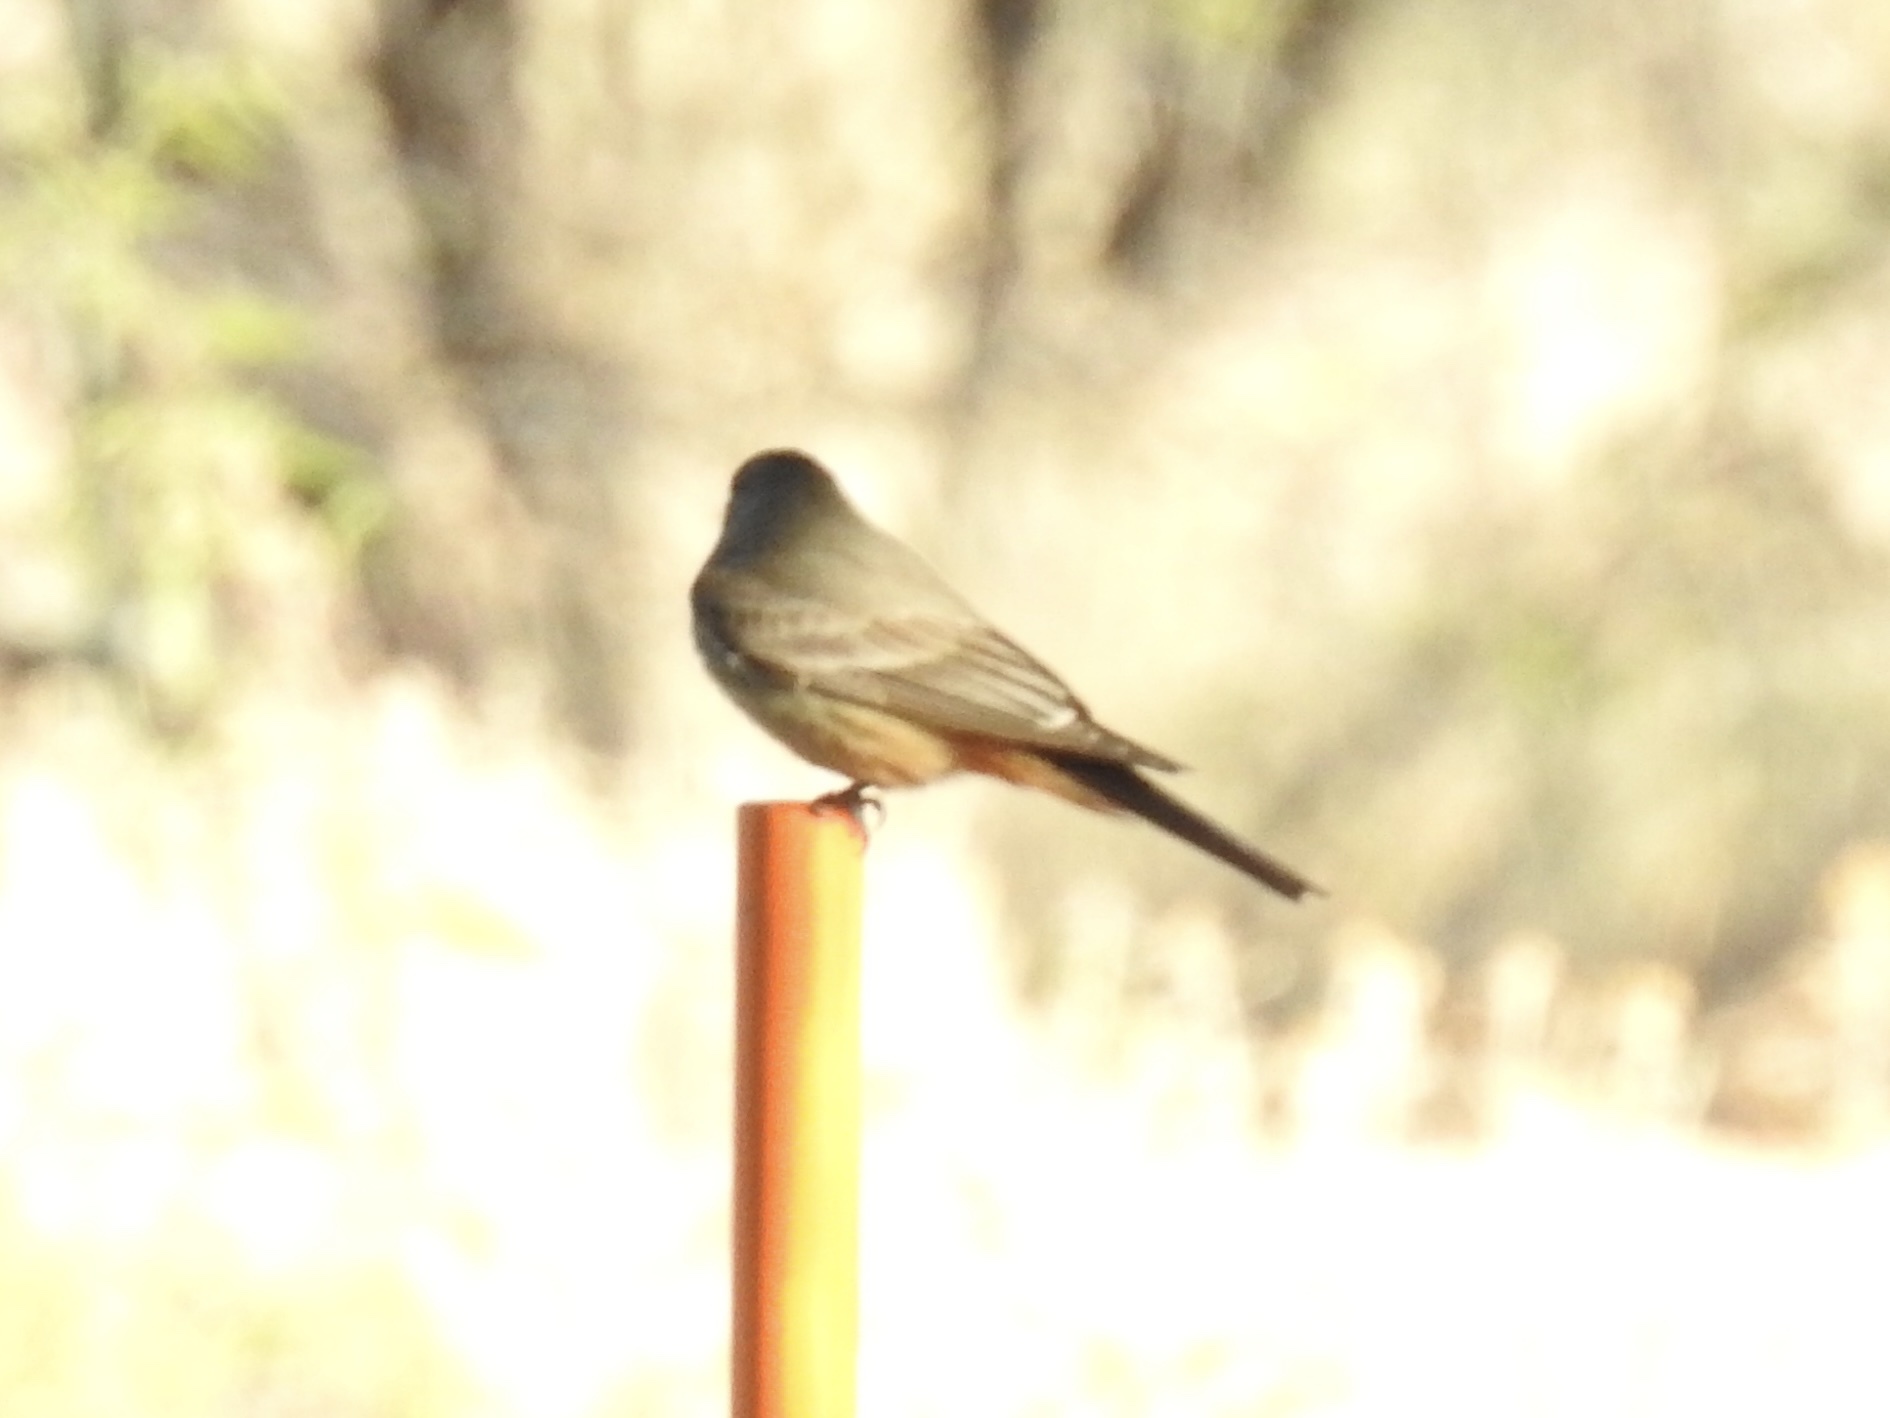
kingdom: Animalia
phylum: Chordata
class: Aves
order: Passeriformes
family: Tyrannidae
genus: Sayornis
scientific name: Sayornis saya
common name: Say's phoebe
